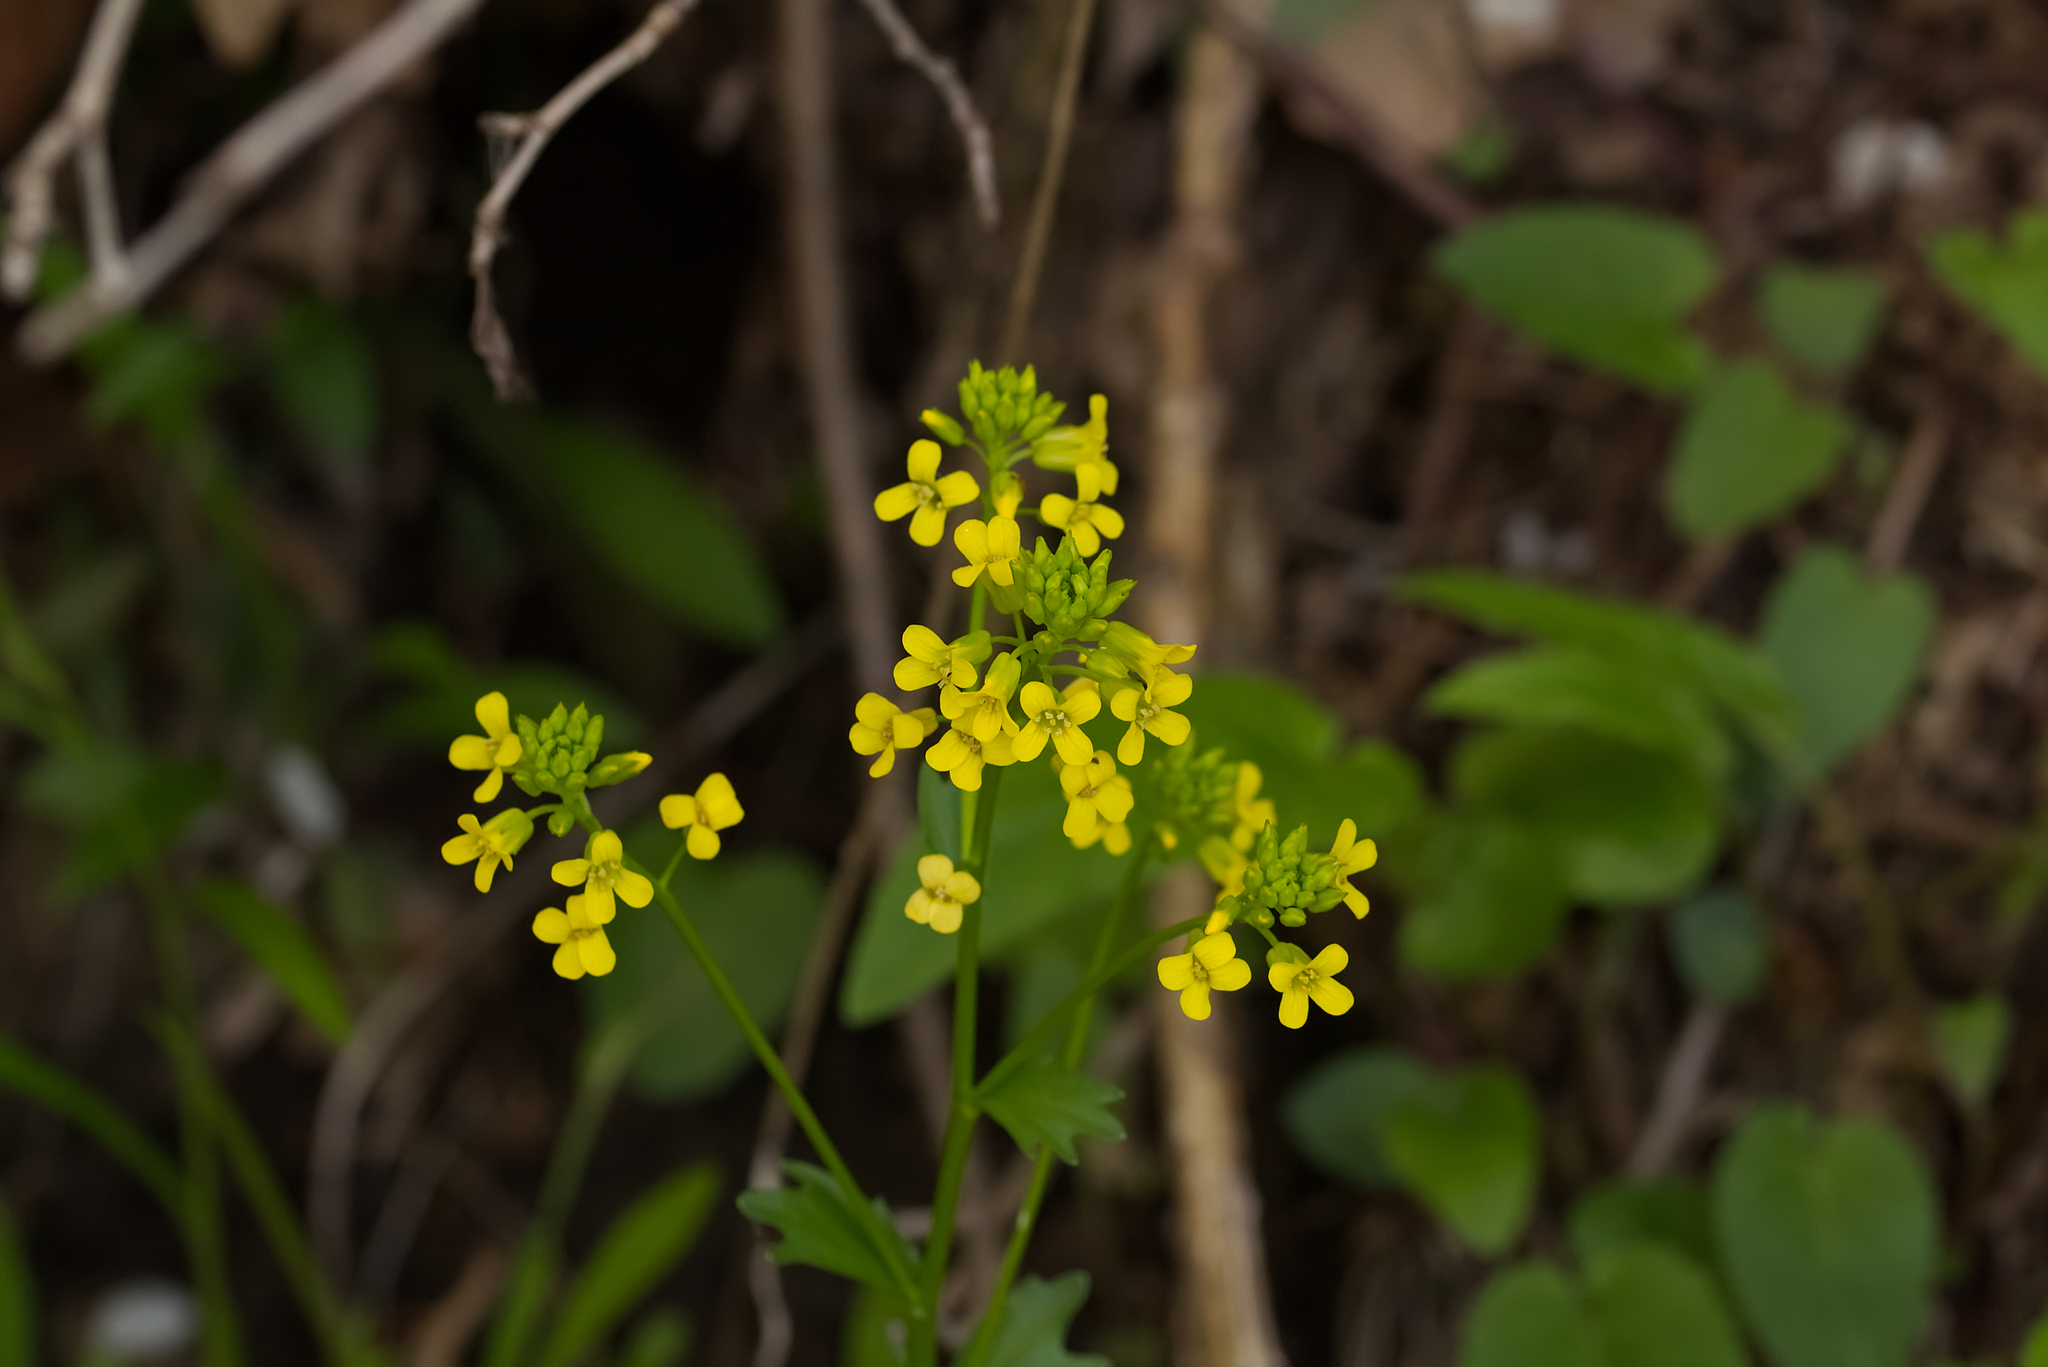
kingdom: Plantae
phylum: Tracheophyta
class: Magnoliopsida
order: Brassicales
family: Brassicaceae
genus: Barbarea
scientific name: Barbarea vulgaris
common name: Cressy-greens
